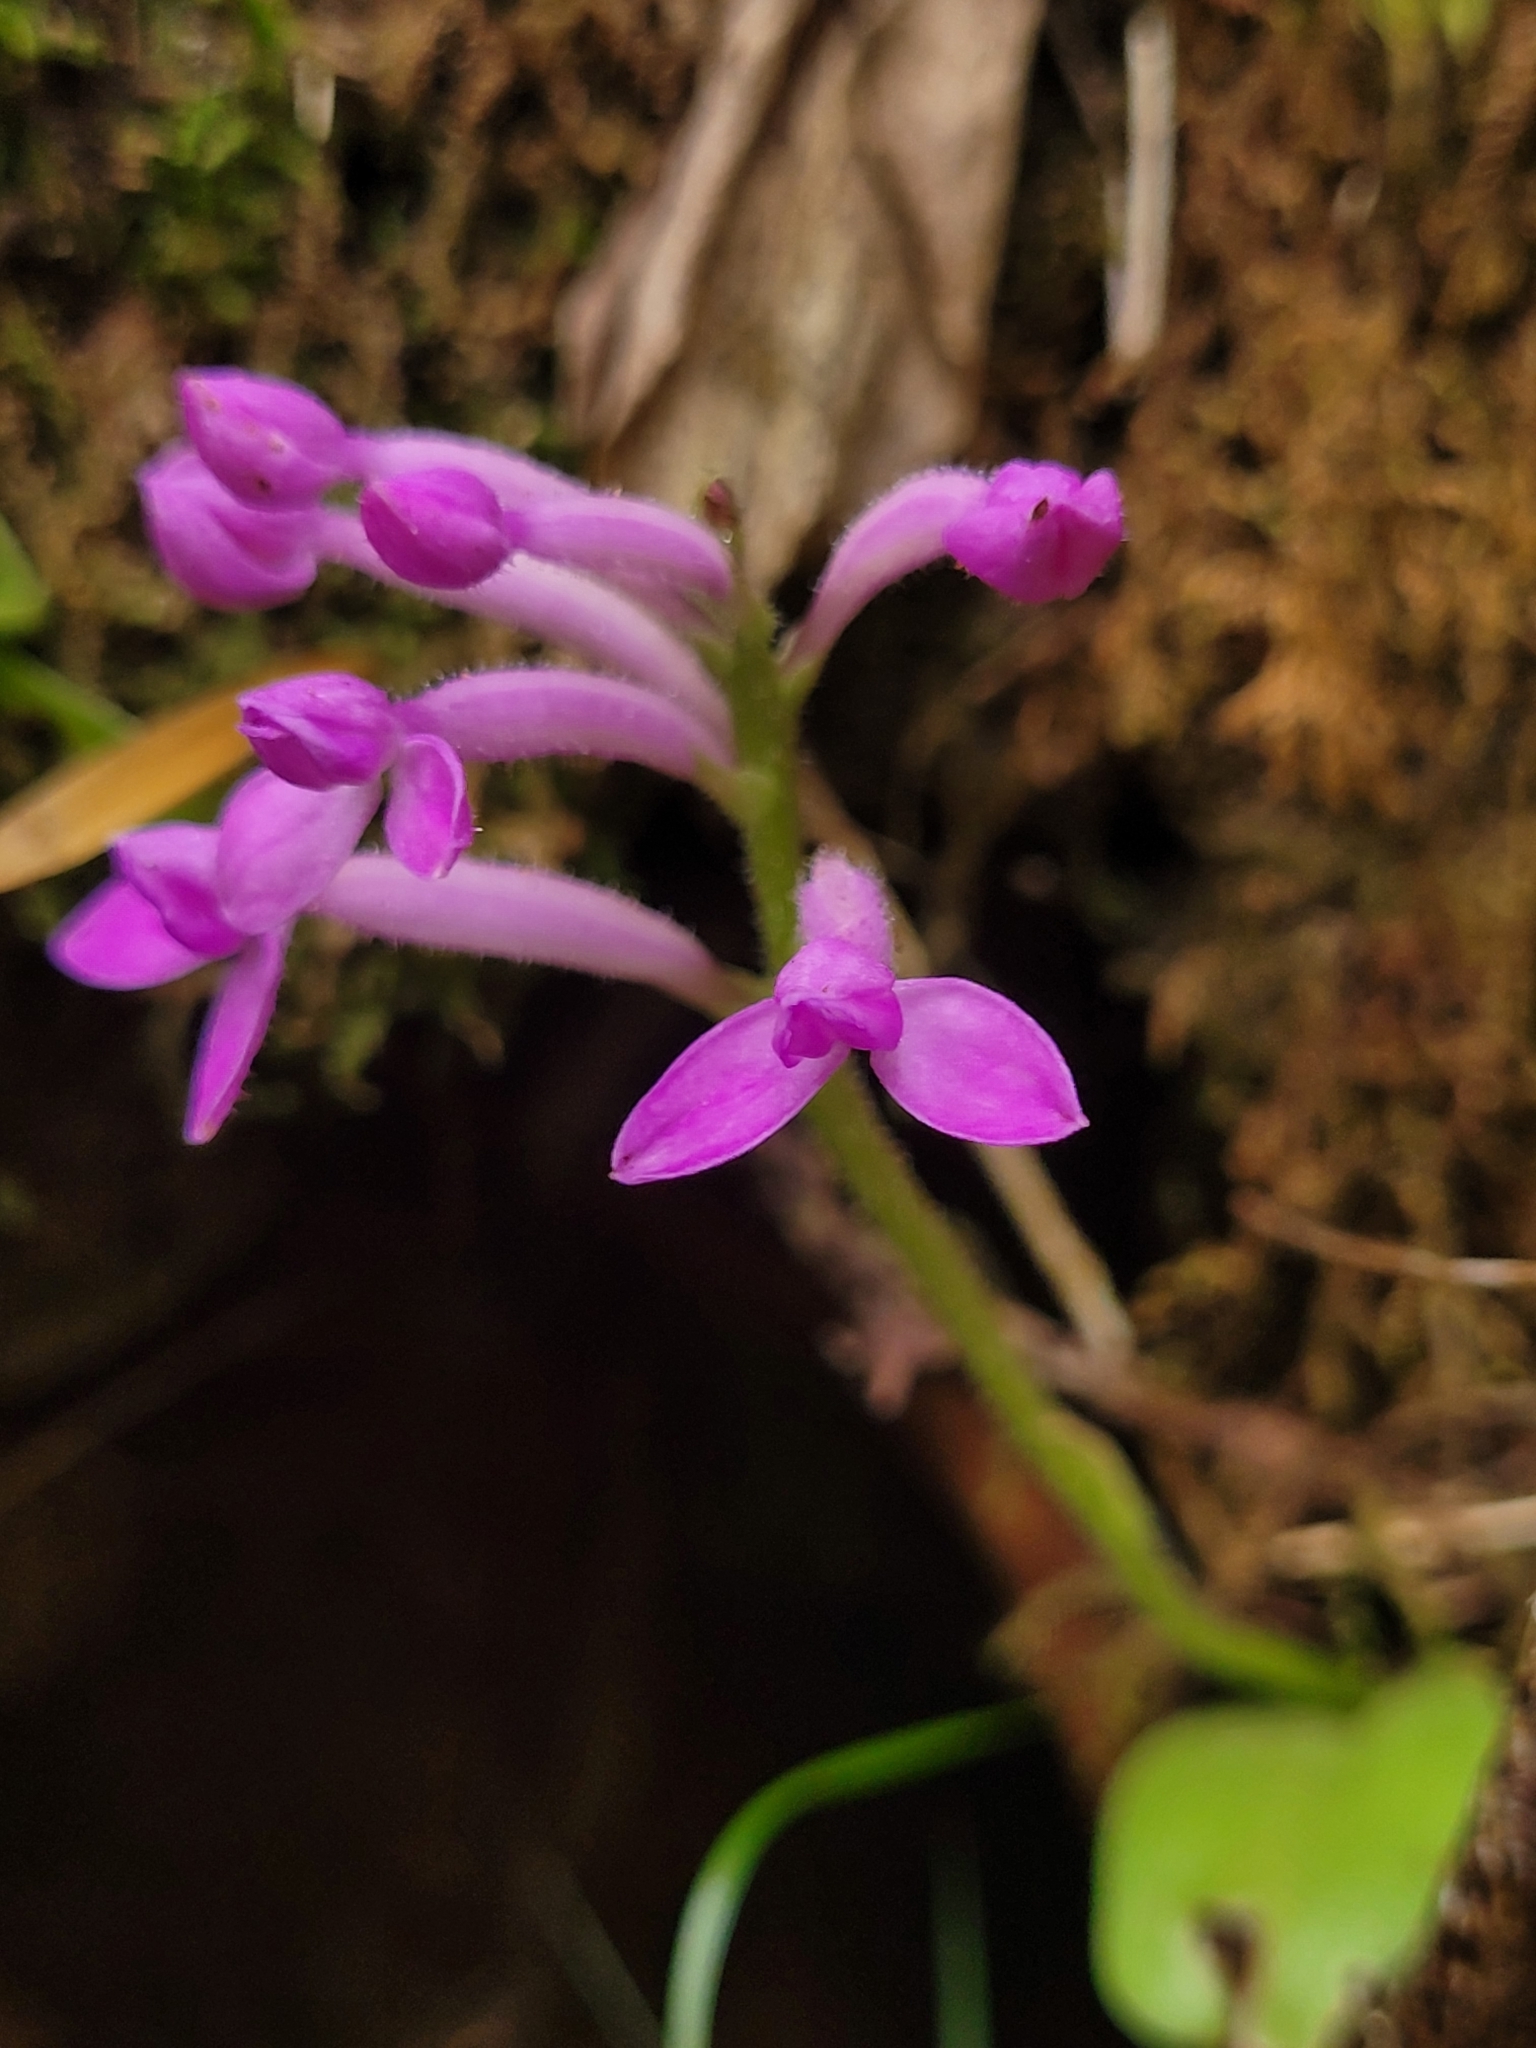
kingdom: Plantae
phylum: Tracheophyta
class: Liliopsida
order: Asparagales
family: Orchidaceae
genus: Cynorkis
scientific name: Cynorkis inermis
